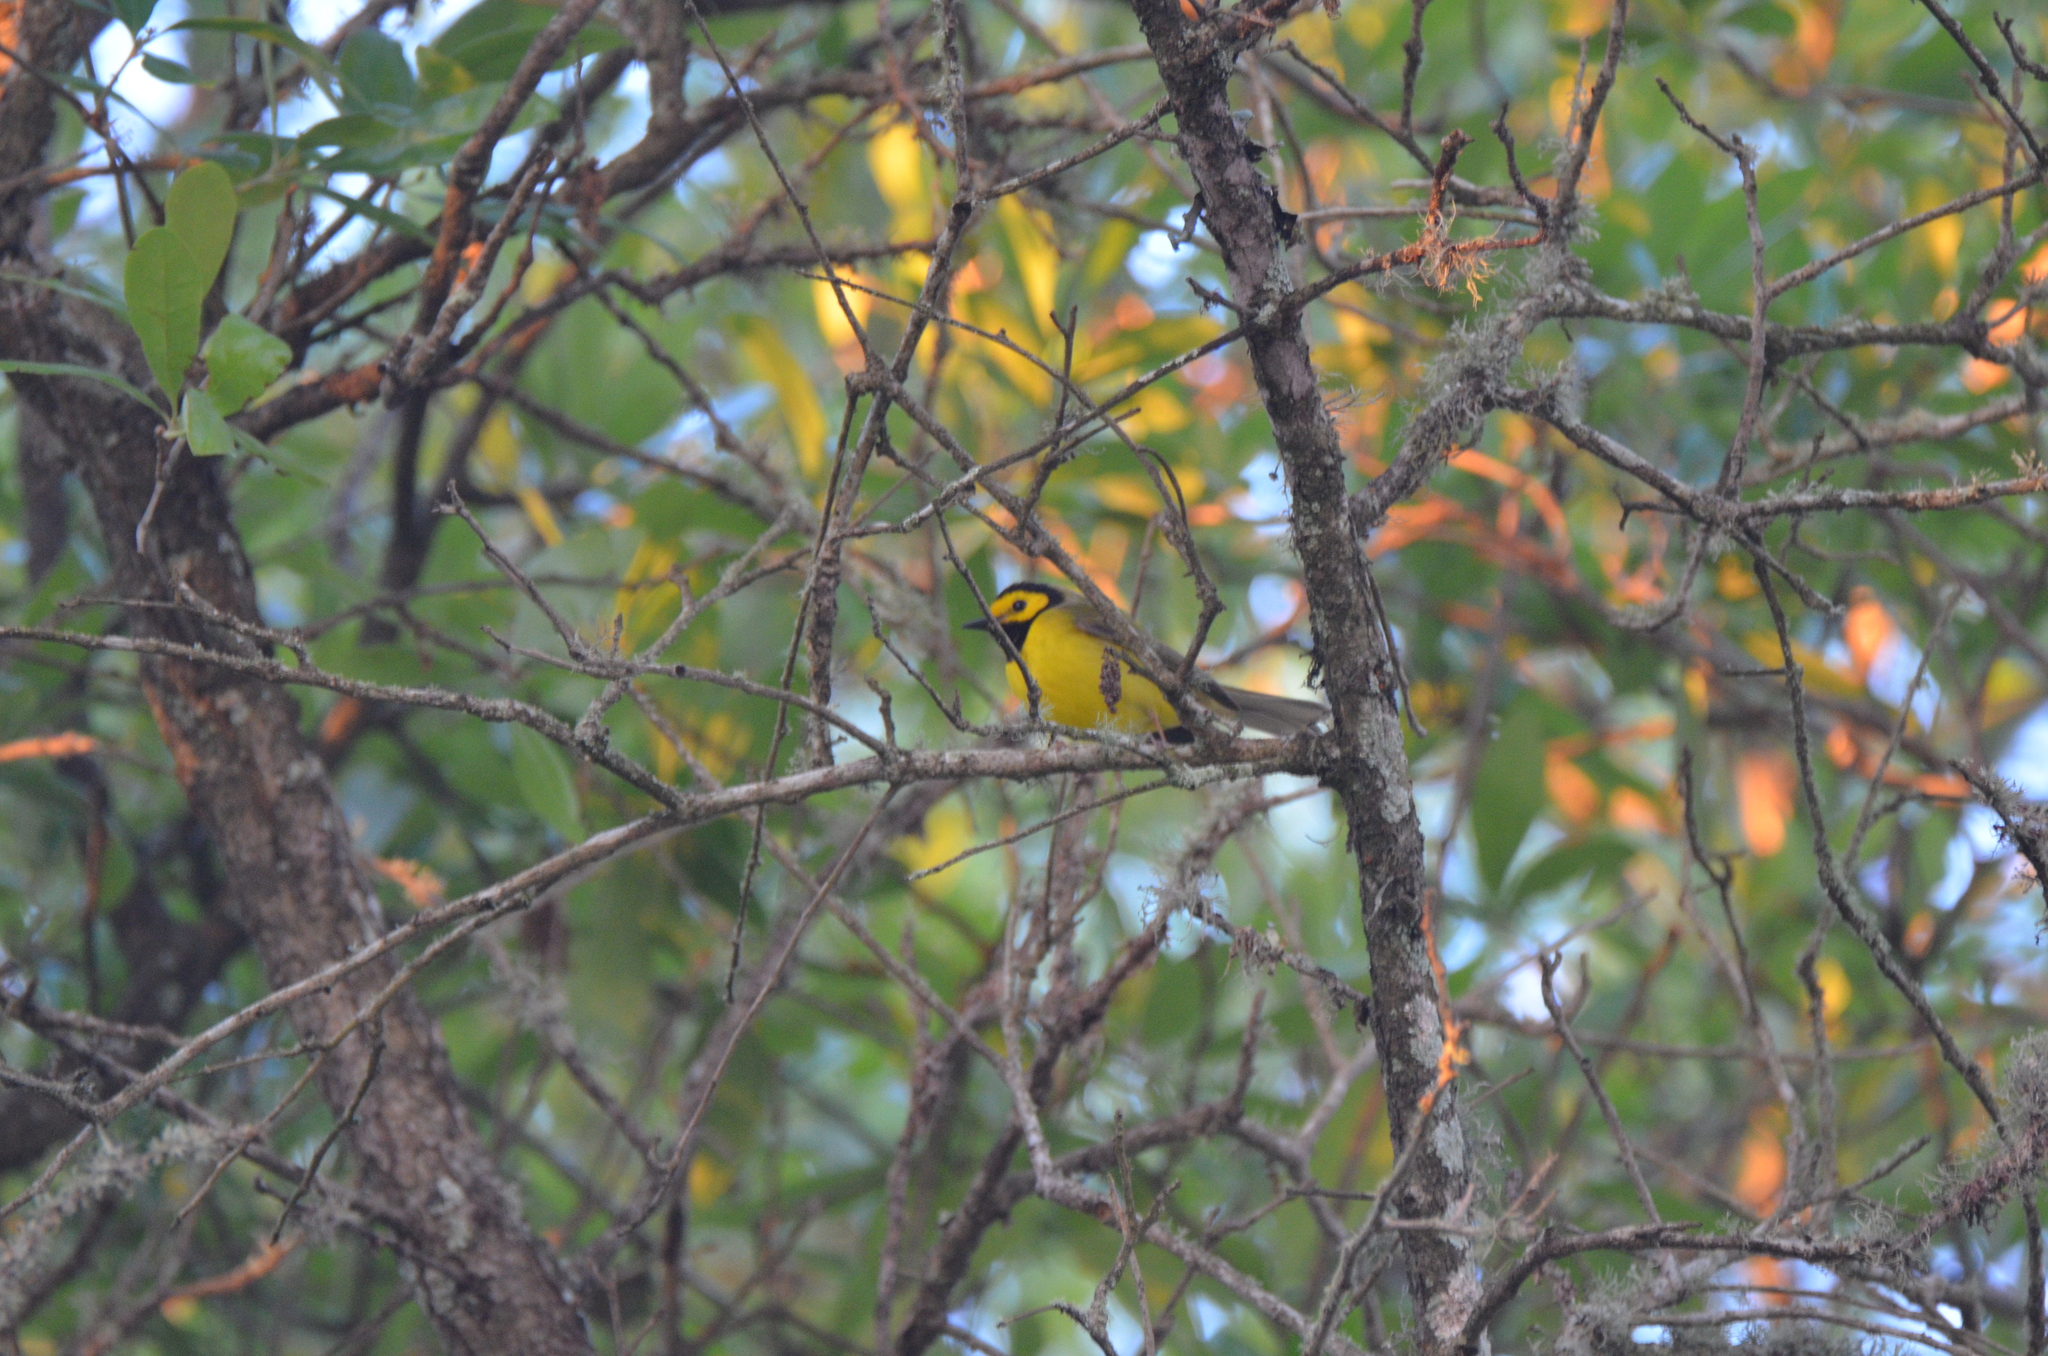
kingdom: Animalia
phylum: Chordata
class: Aves
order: Passeriformes
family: Parulidae
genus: Setophaga
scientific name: Setophaga citrina
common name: Hooded warbler
